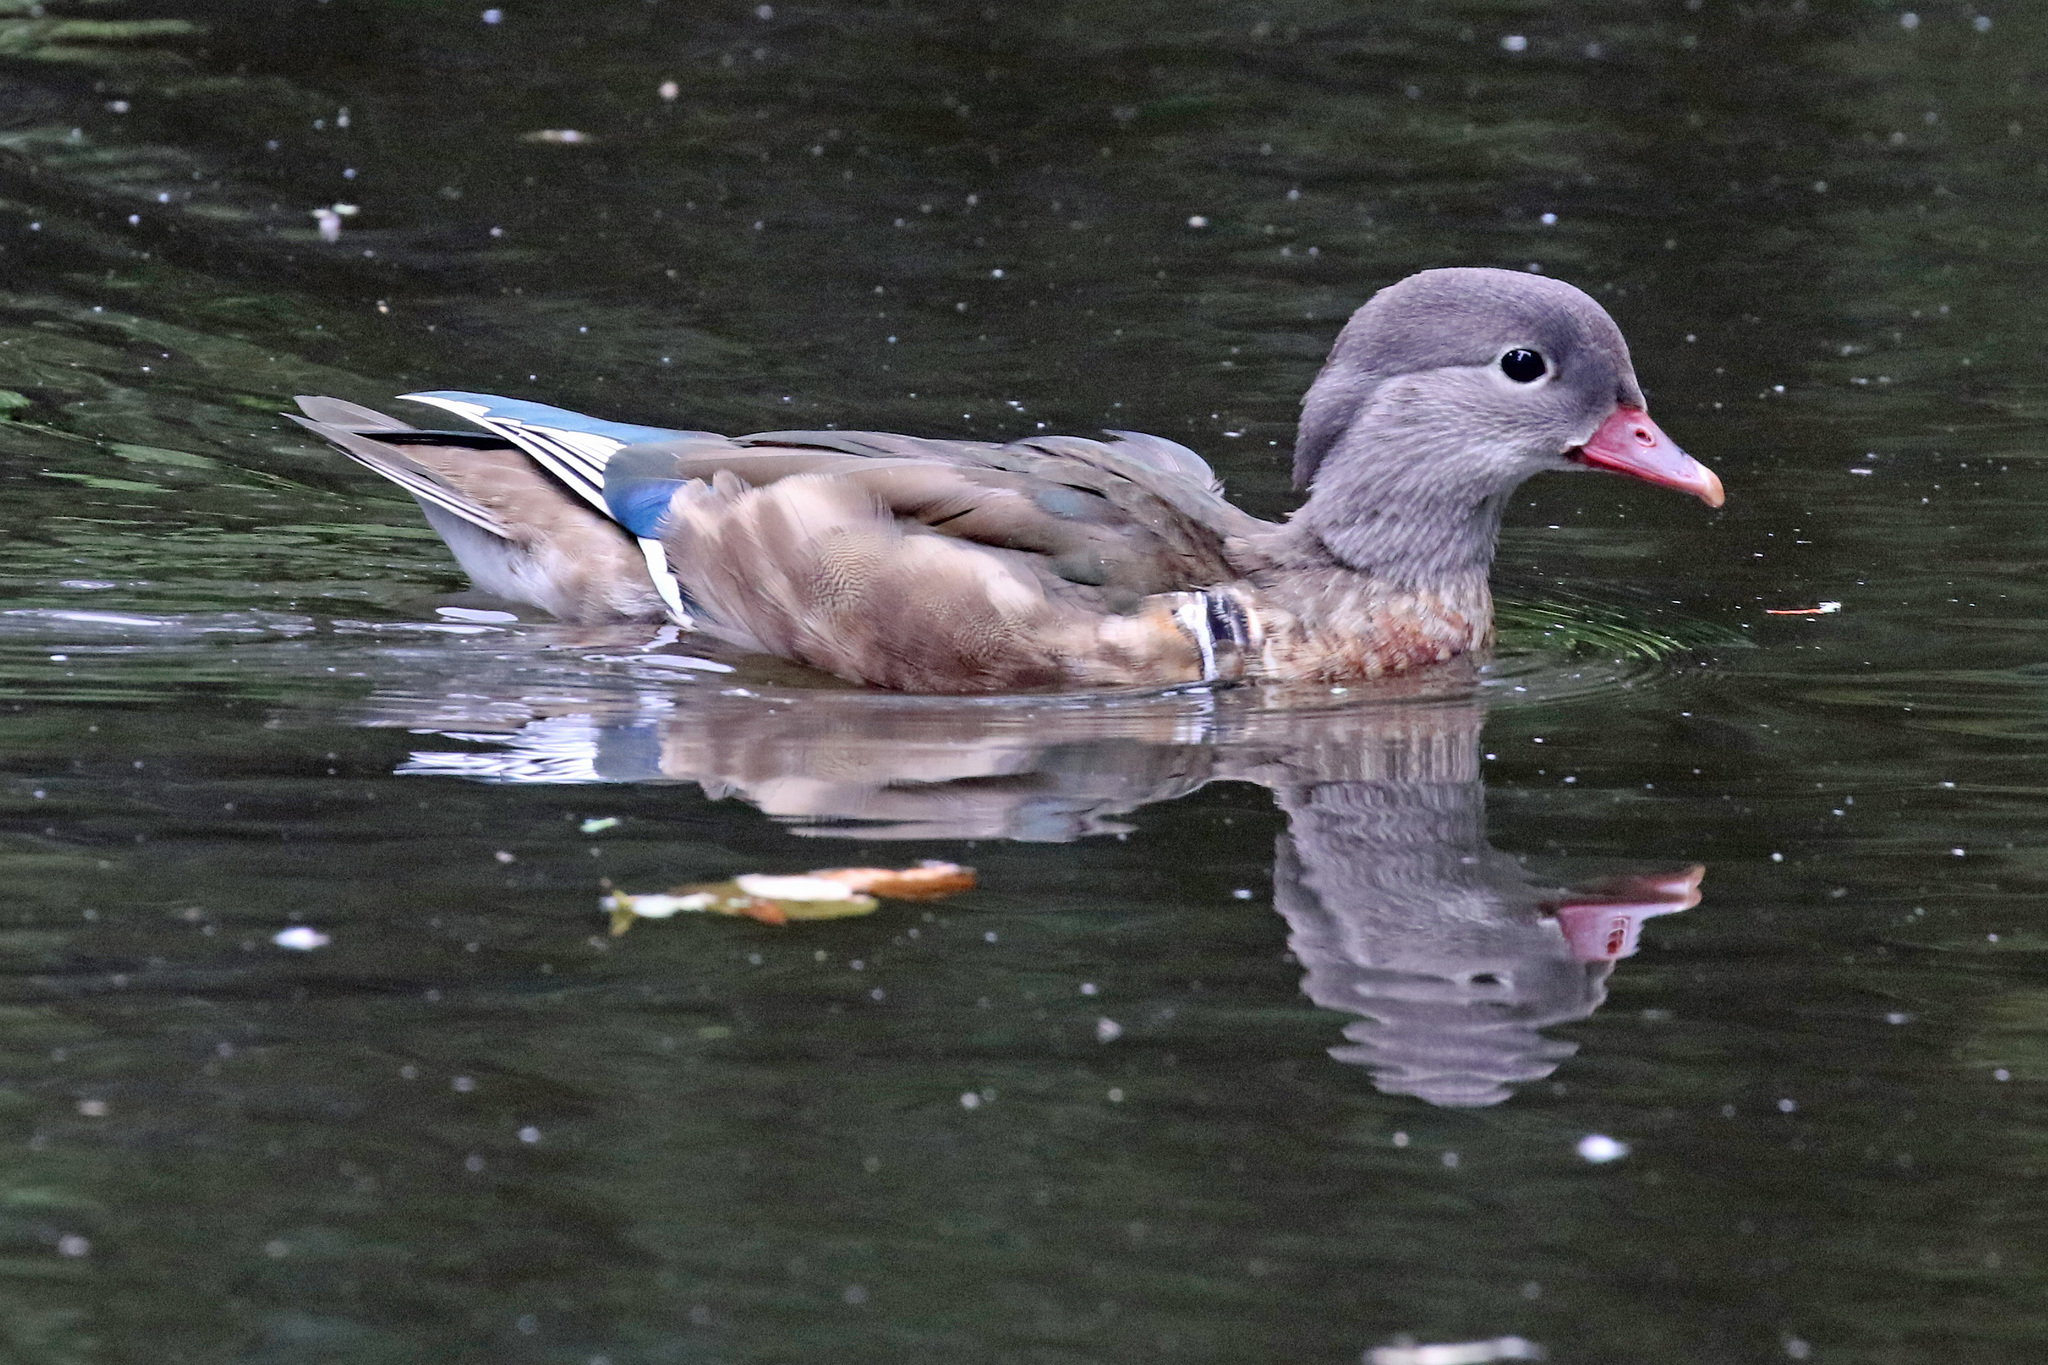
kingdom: Animalia
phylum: Chordata
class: Aves
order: Anseriformes
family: Anatidae
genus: Aix
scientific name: Aix galericulata
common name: Mandarin duck
